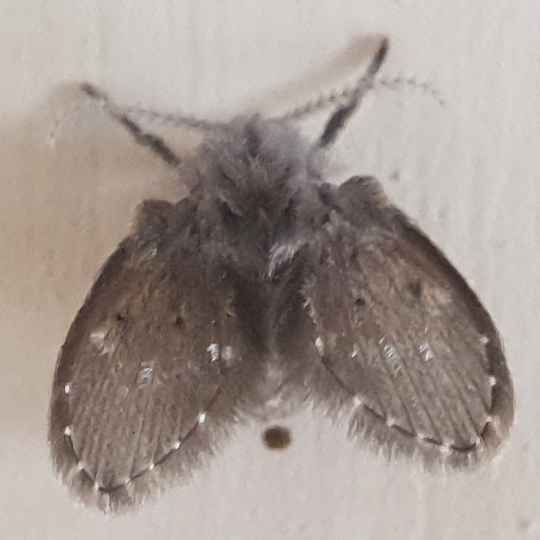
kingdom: Animalia
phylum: Arthropoda
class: Insecta
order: Diptera
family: Psychodidae
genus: Clogmia
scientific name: Clogmia albipunctatus
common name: White-spotted moth fly
